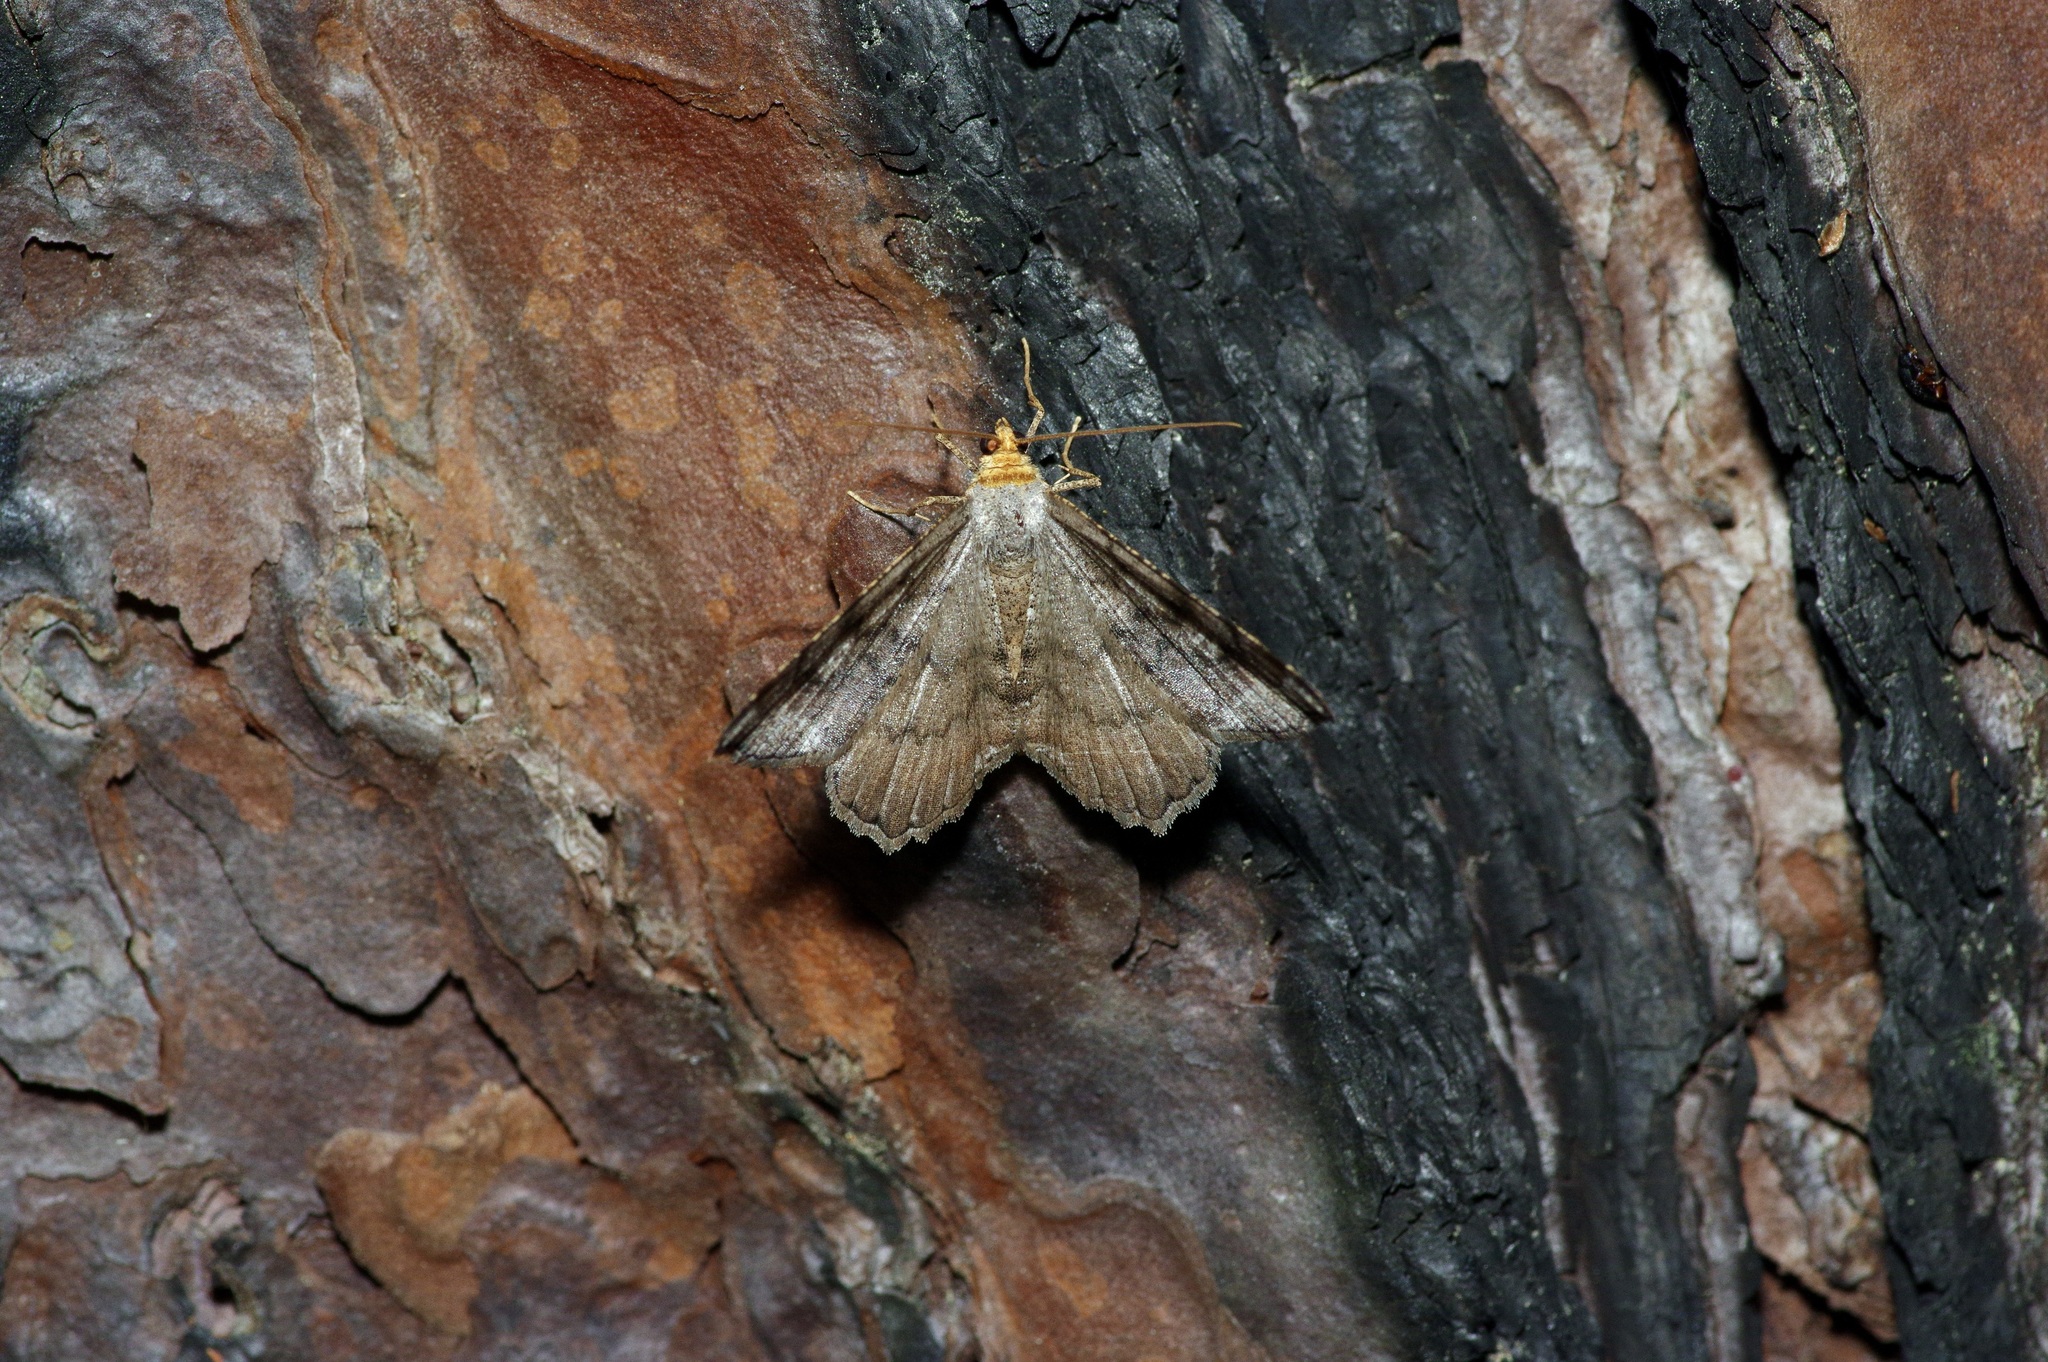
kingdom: Animalia
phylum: Arthropoda
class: Insecta
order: Lepidoptera
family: Geometridae
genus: Macaria
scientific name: Macaria distribuaria
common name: Southern chocolate angle
